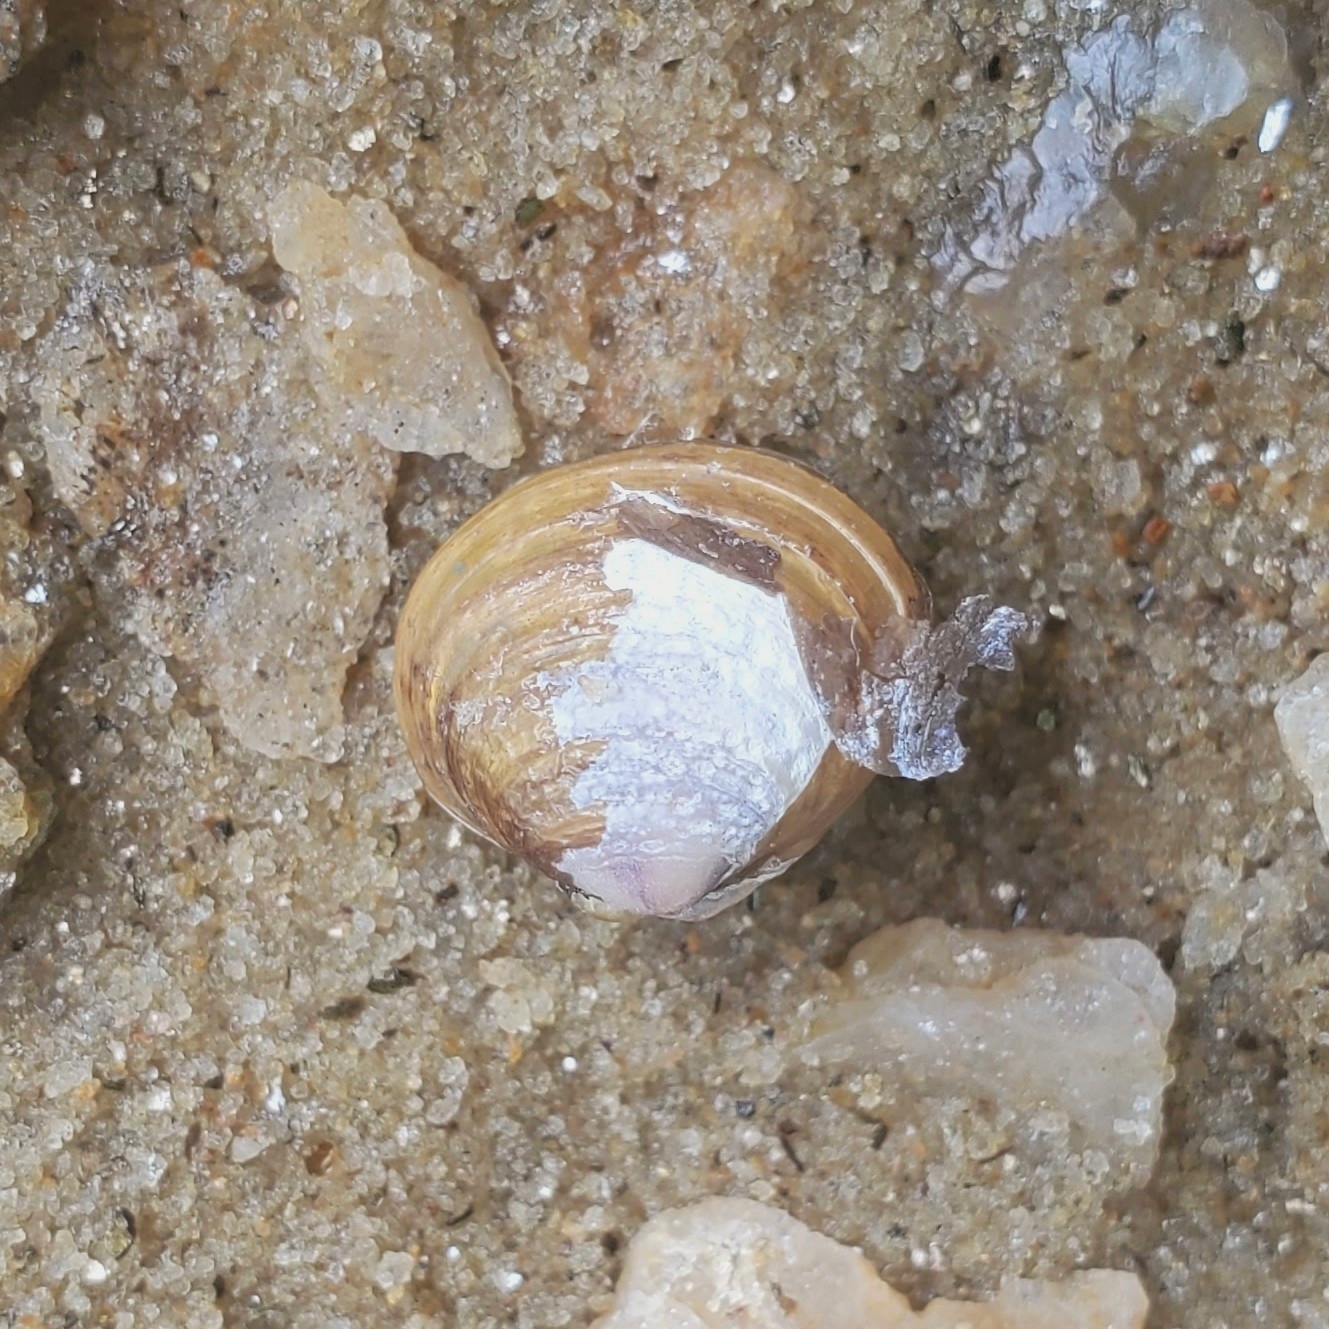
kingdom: Animalia
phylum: Mollusca
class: Bivalvia
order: Venerida
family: Cyrenidae
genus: Corbicula
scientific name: Corbicula fluminea
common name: Asian clam
